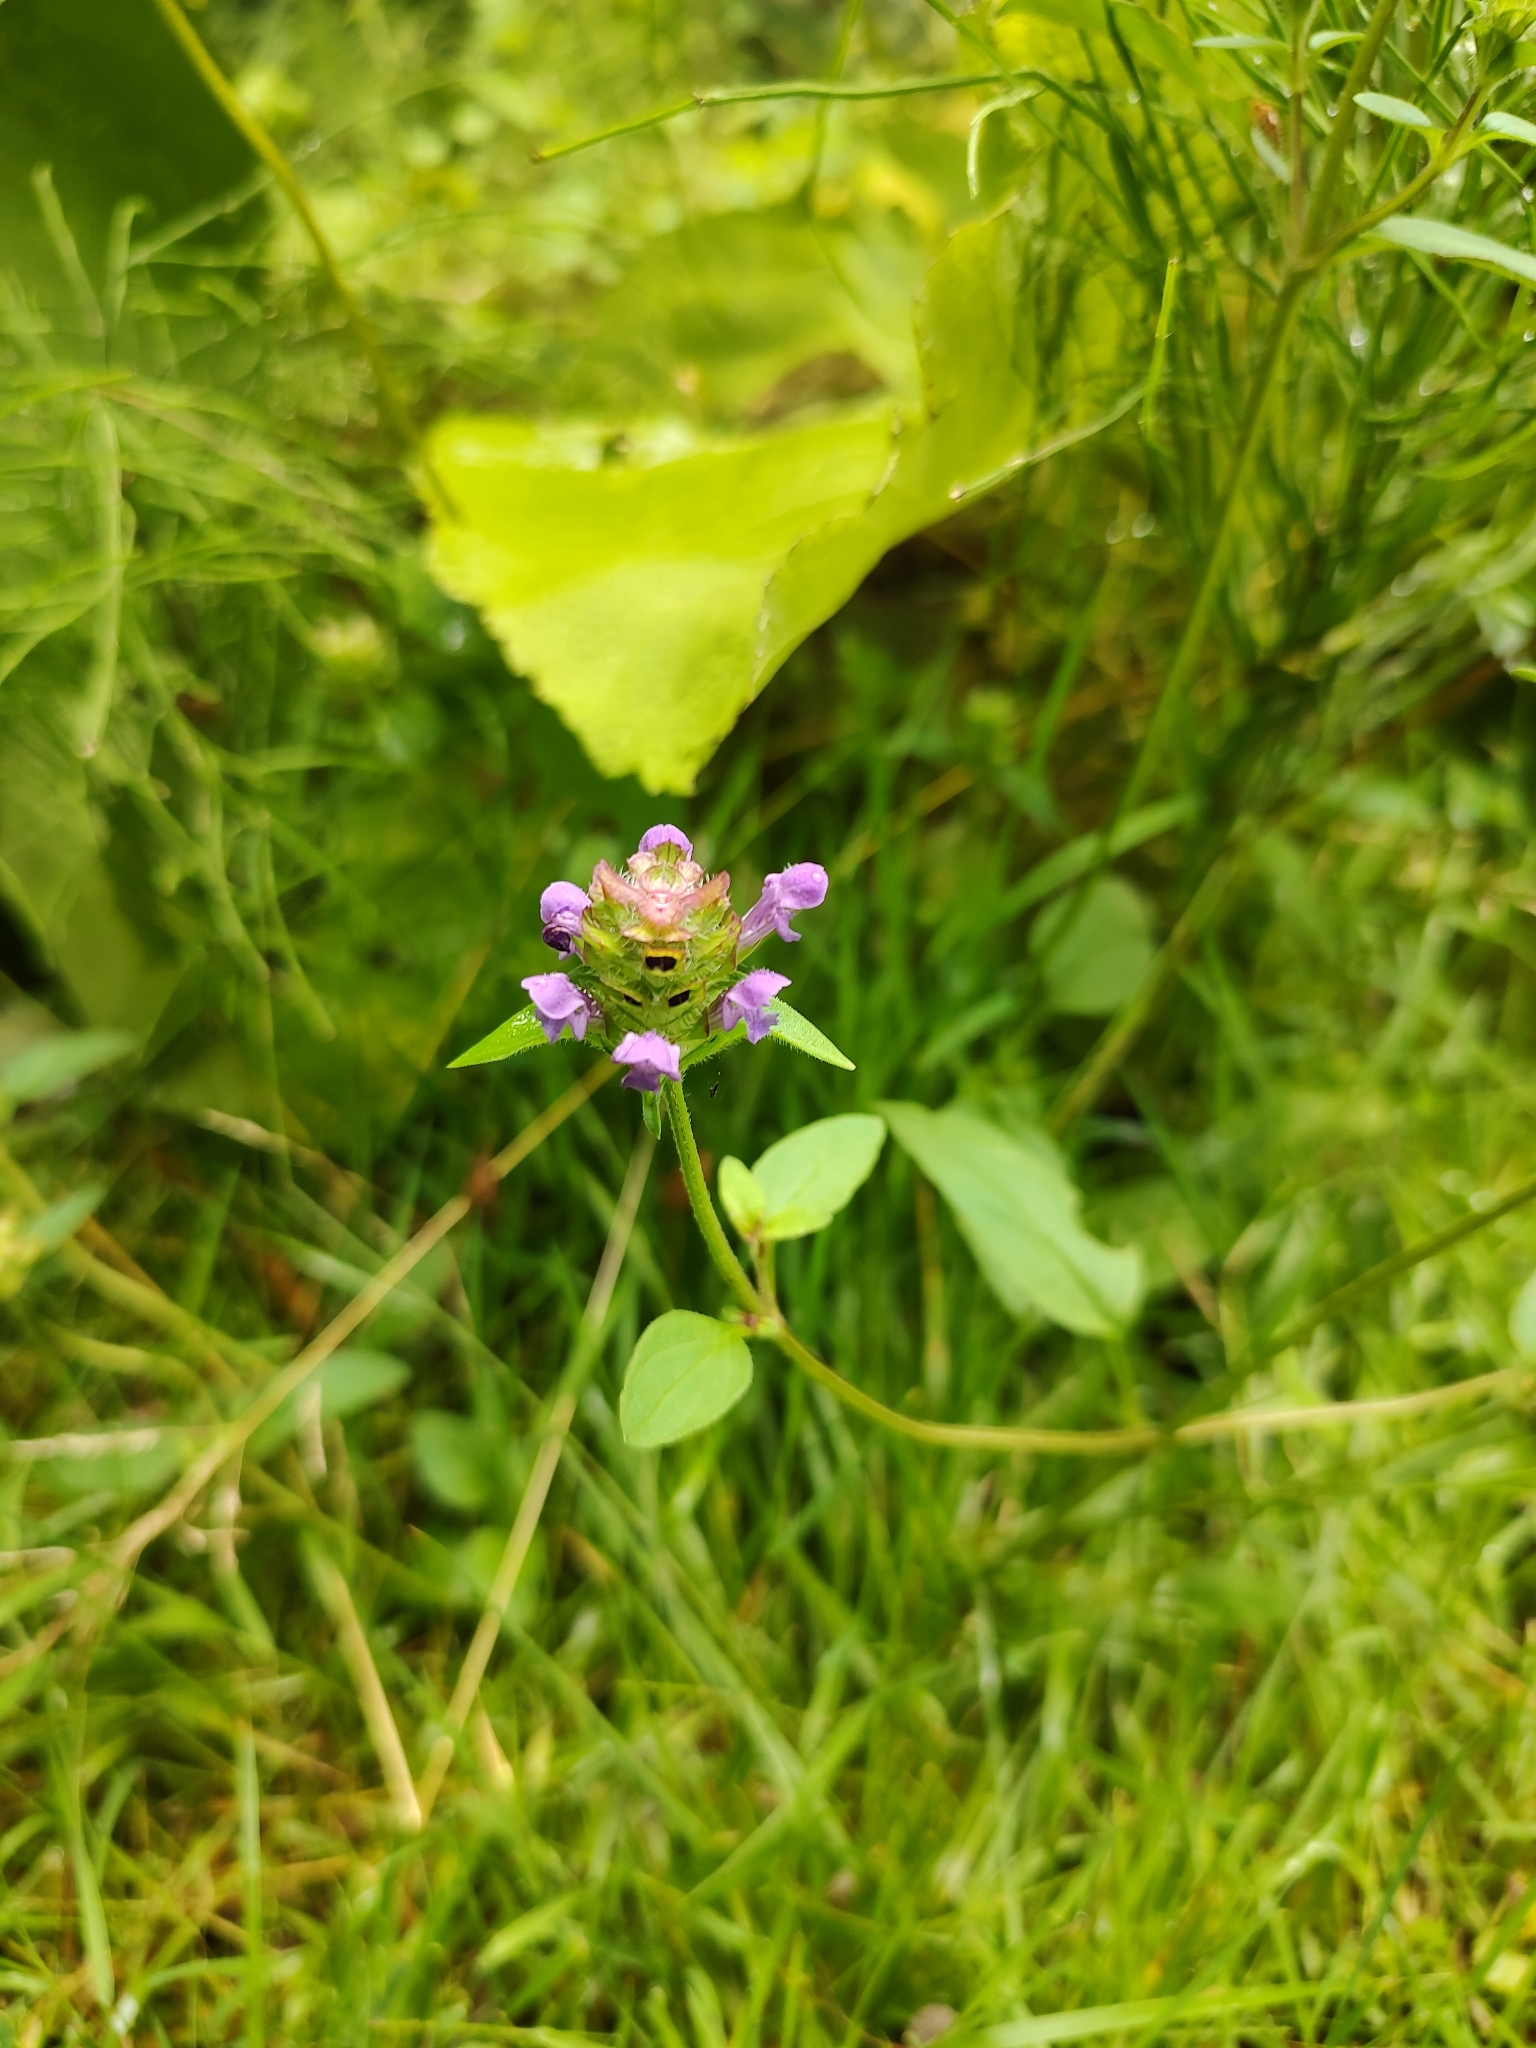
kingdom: Plantae
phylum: Tracheophyta
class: Magnoliopsida
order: Lamiales
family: Lamiaceae
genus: Prunella
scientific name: Prunella vulgaris
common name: Heal-all
